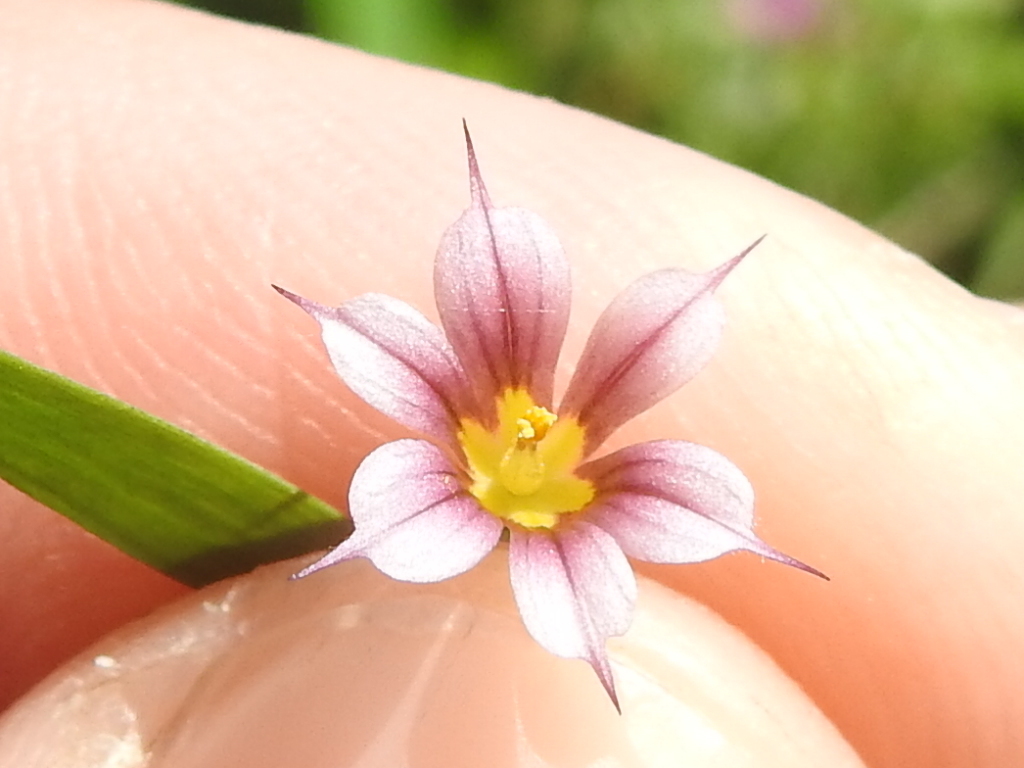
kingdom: Plantae
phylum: Tracheophyta
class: Liliopsida
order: Asparagales
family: Iridaceae
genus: Sisyrinchium
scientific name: Sisyrinchium micranthum
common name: Bermuda pigroot
